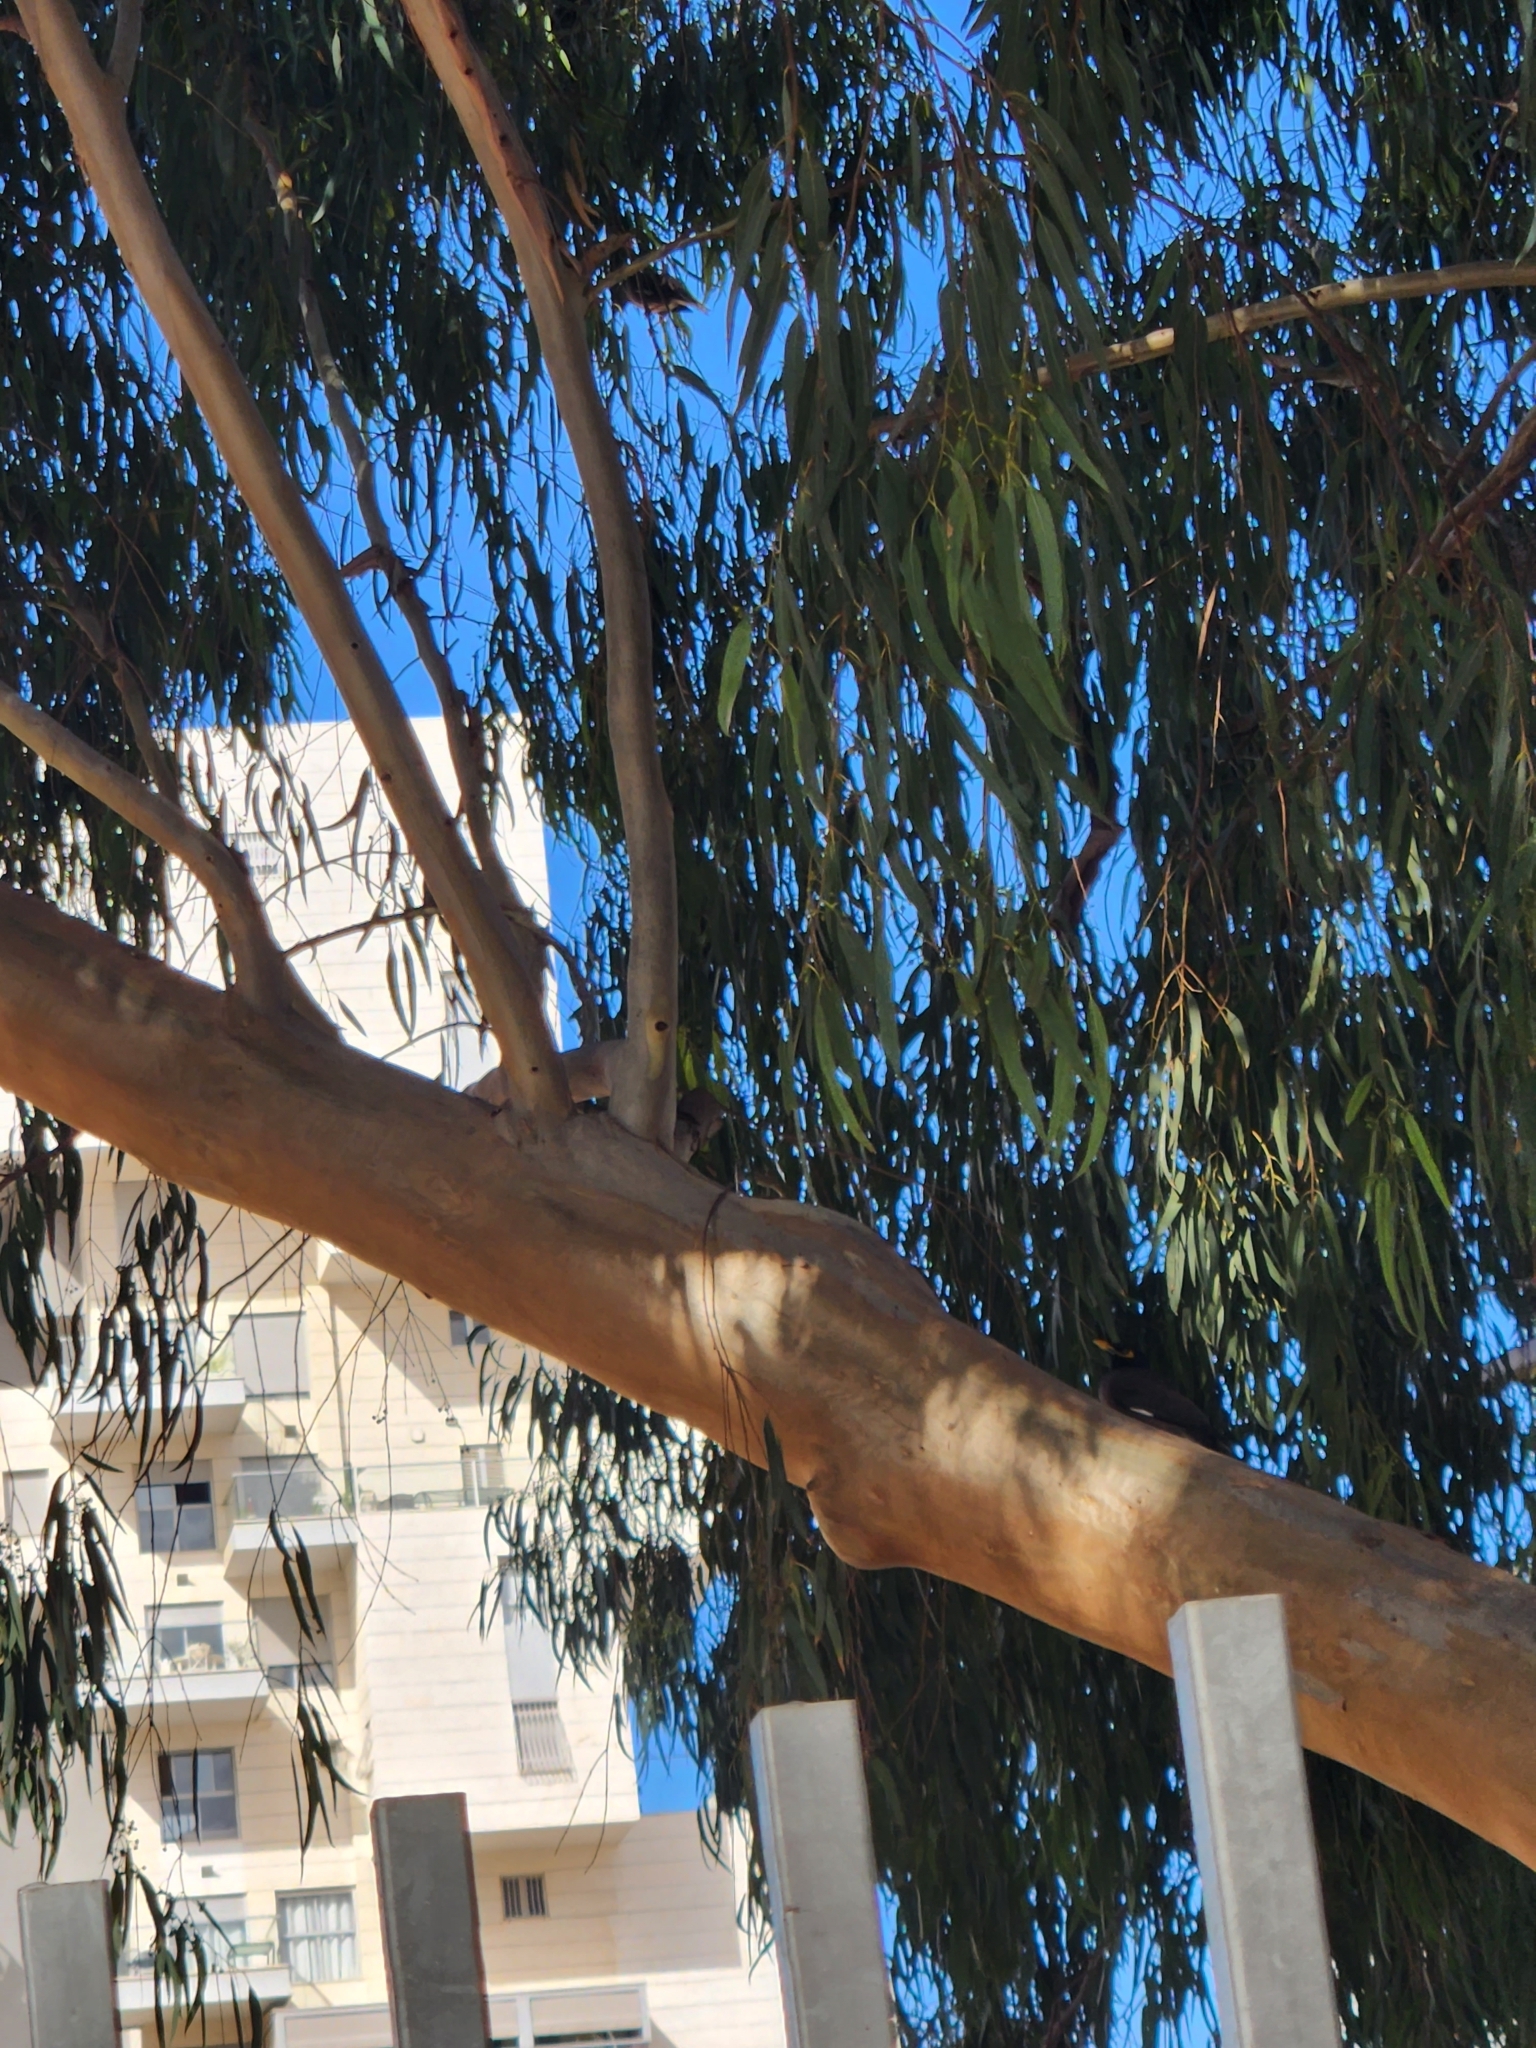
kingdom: Animalia
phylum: Chordata
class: Aves
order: Passeriformes
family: Sturnidae
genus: Acridotheres
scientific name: Acridotheres tristis
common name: Common myna
